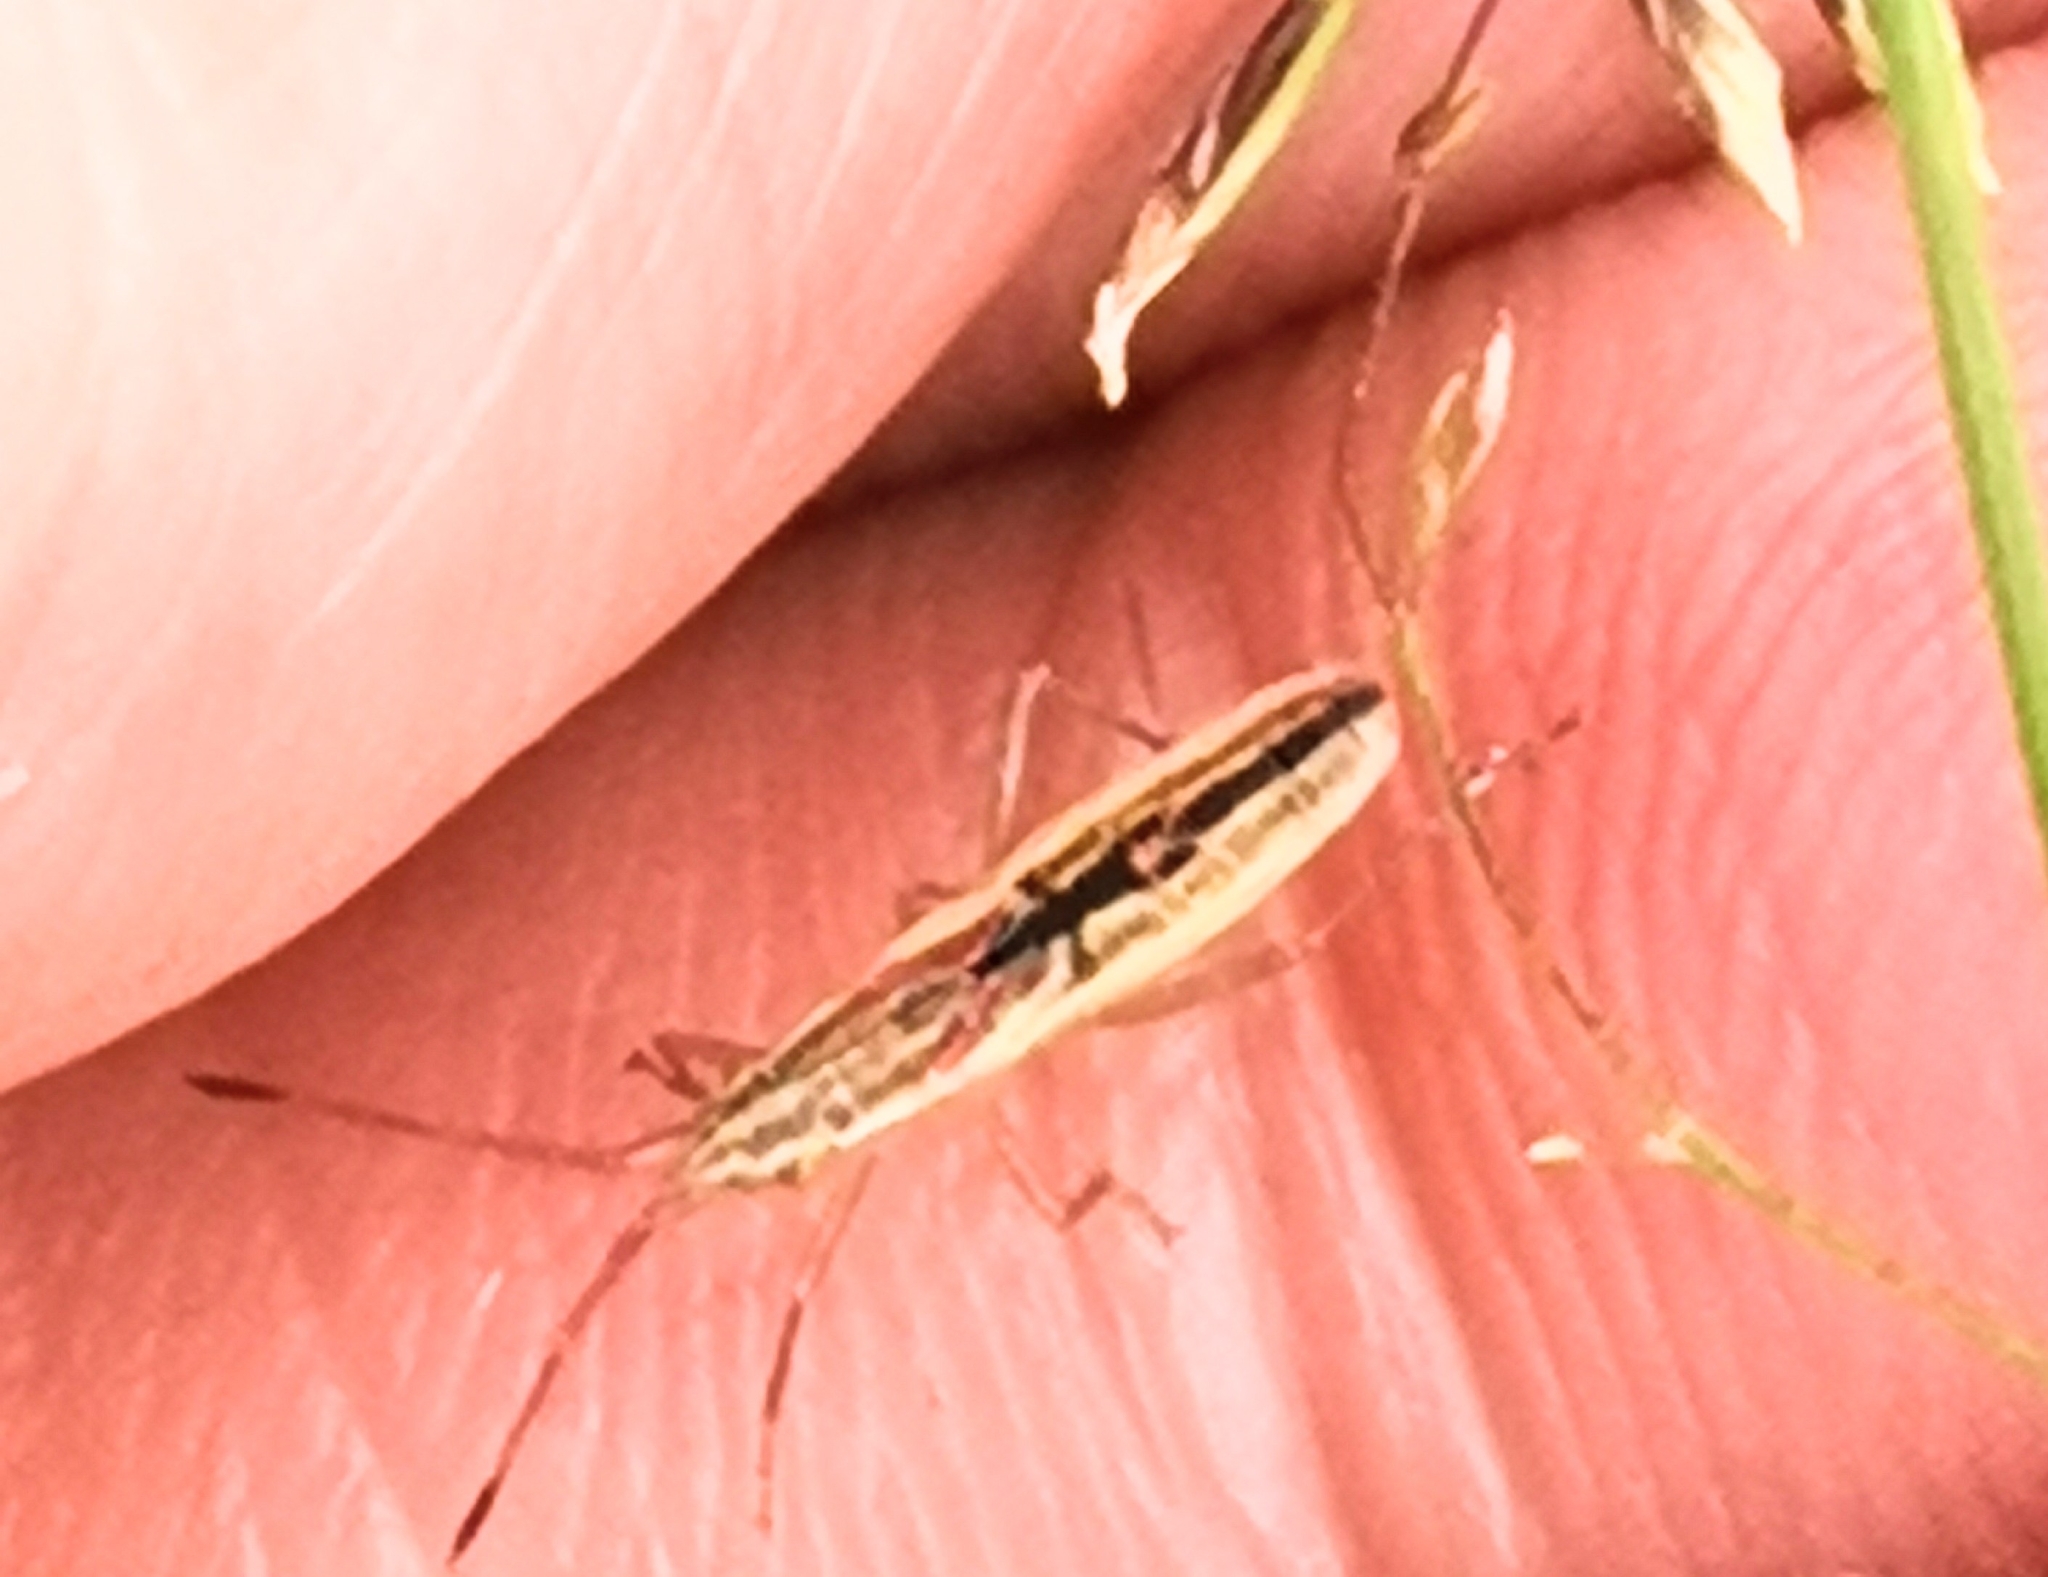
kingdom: Animalia
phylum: Arthropoda
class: Insecta
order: Hemiptera
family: Rhopalidae
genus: Myrmus
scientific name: Myrmus miriformis
